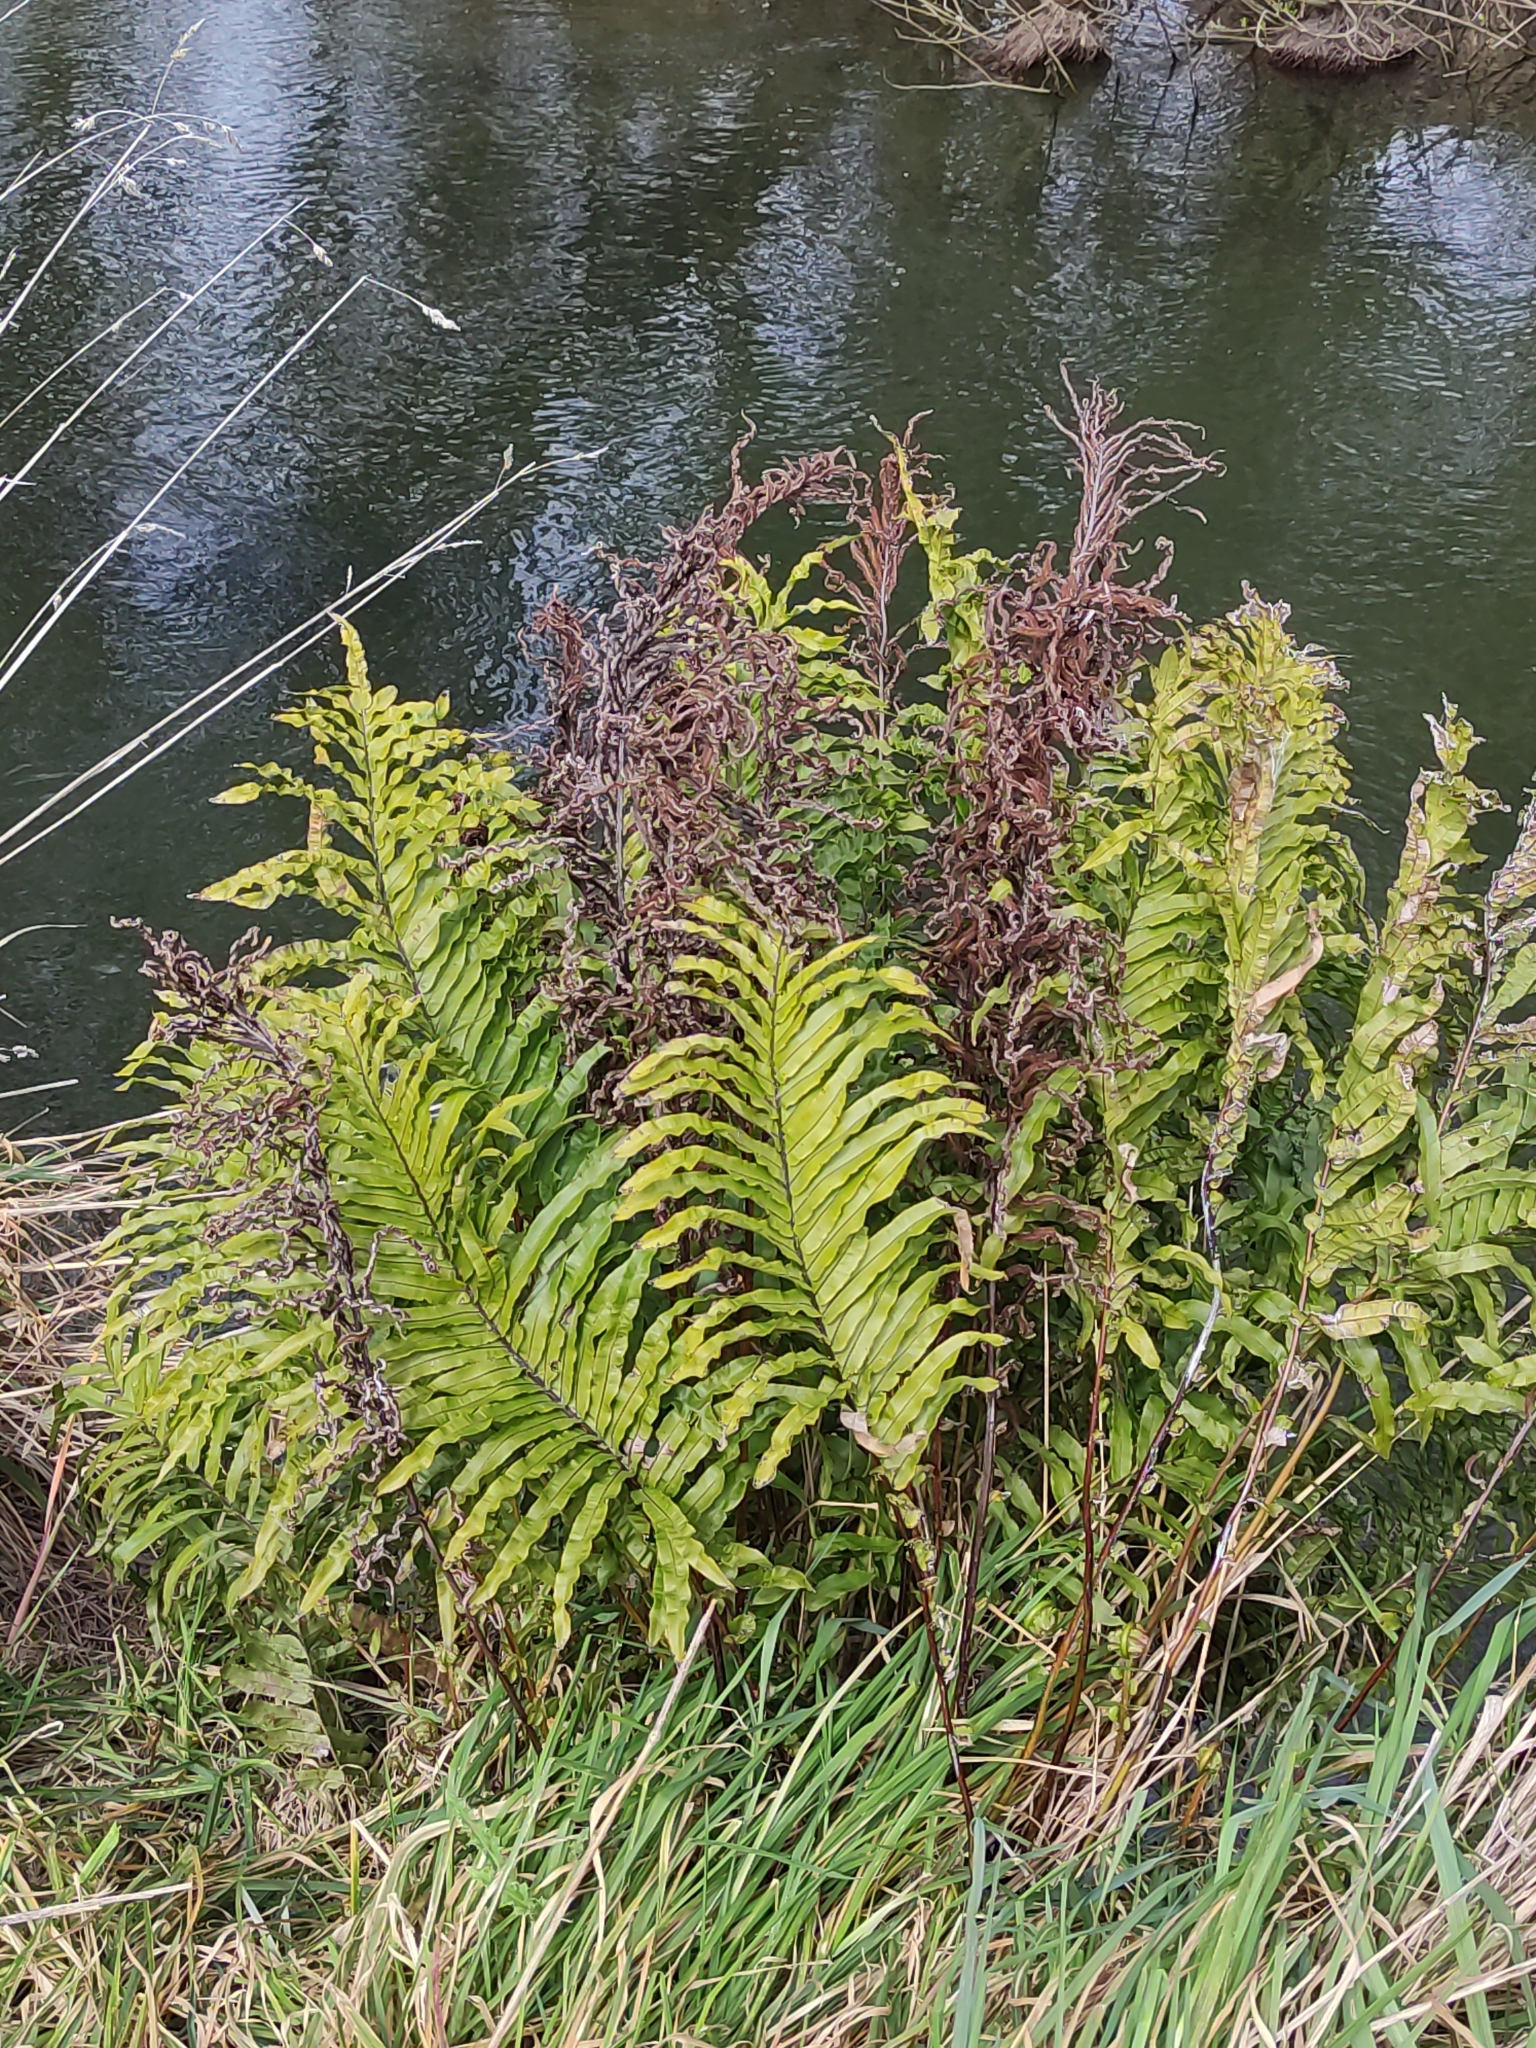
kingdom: Plantae
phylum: Tracheophyta
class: Polypodiopsida
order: Polypodiales
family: Blechnaceae
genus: Parablechnum
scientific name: Parablechnum minus
